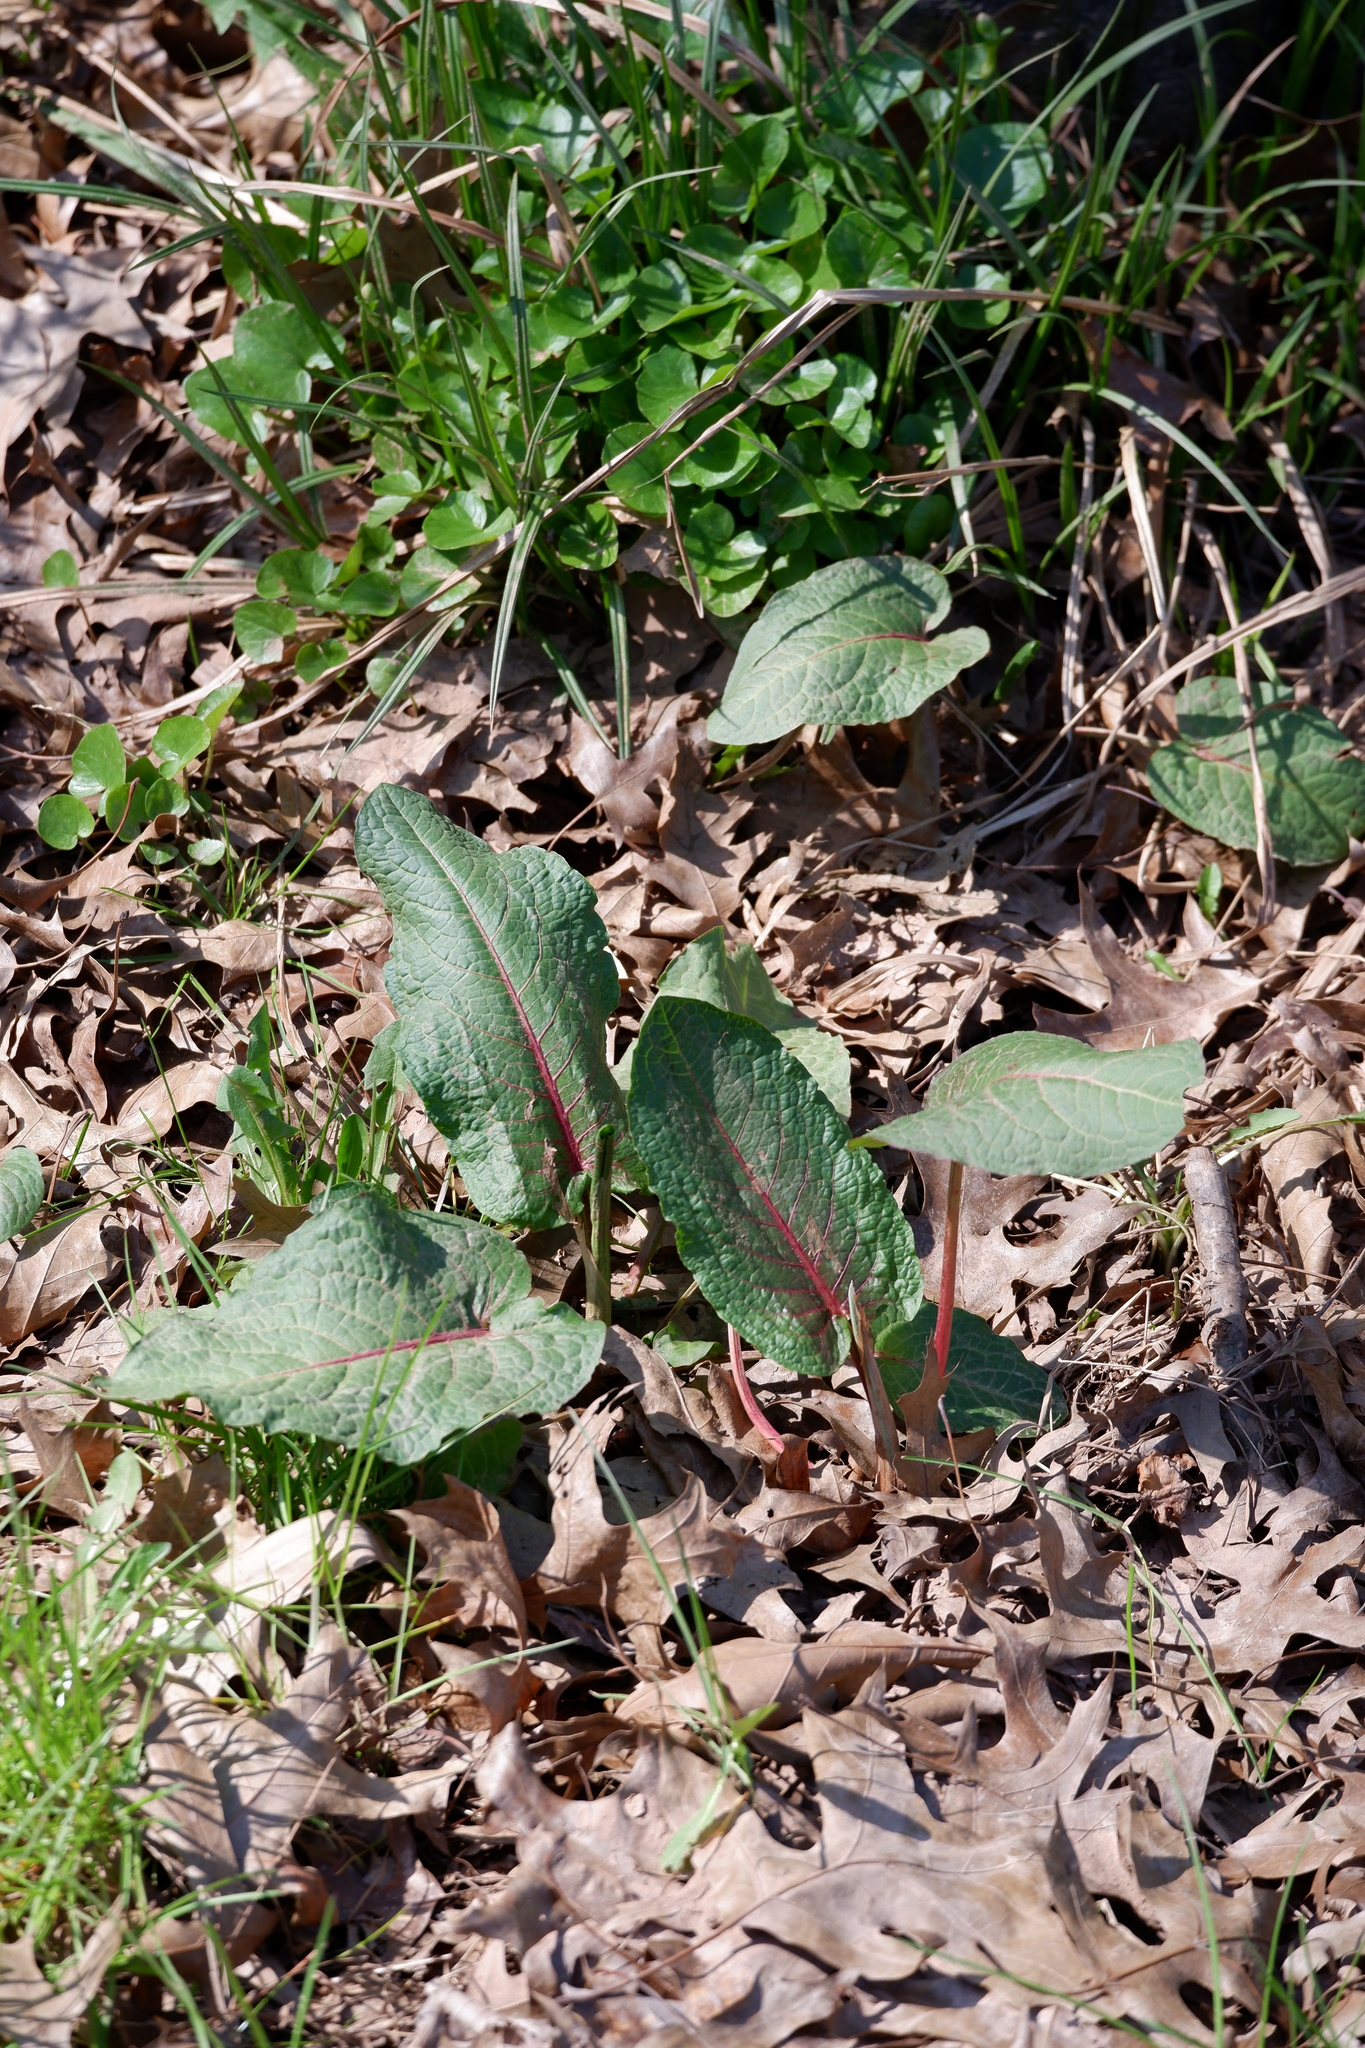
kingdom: Plantae
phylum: Tracheophyta
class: Magnoliopsida
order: Caryophyllales
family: Polygonaceae
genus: Rumex
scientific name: Rumex obtusifolius
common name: Bitter dock
